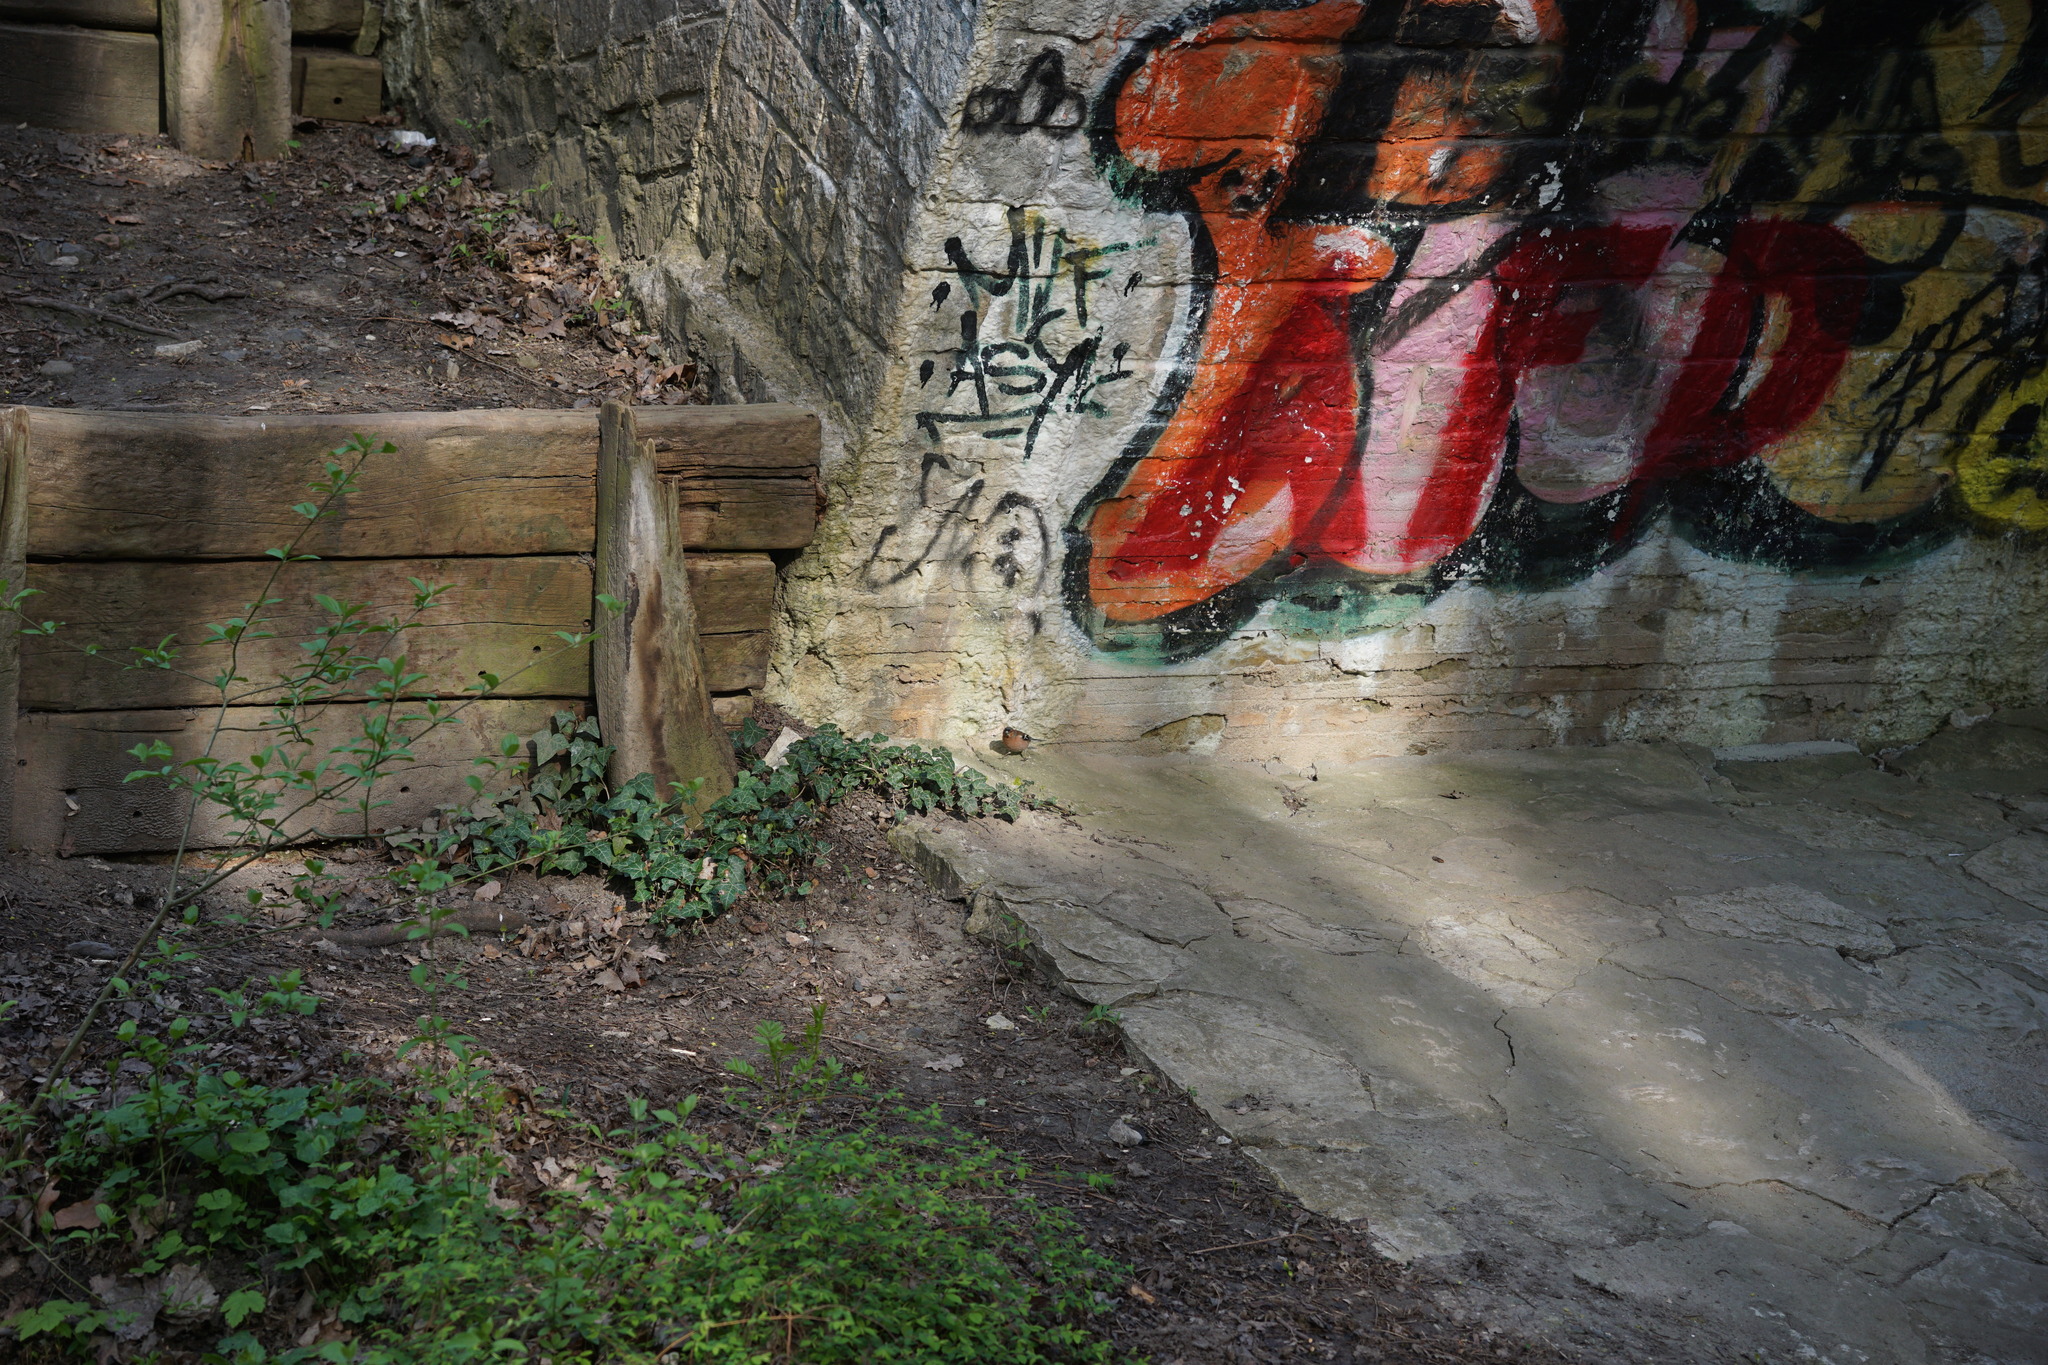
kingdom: Animalia
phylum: Chordata
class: Aves
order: Passeriformes
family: Fringillidae
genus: Fringilla
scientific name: Fringilla coelebs
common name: Common chaffinch
